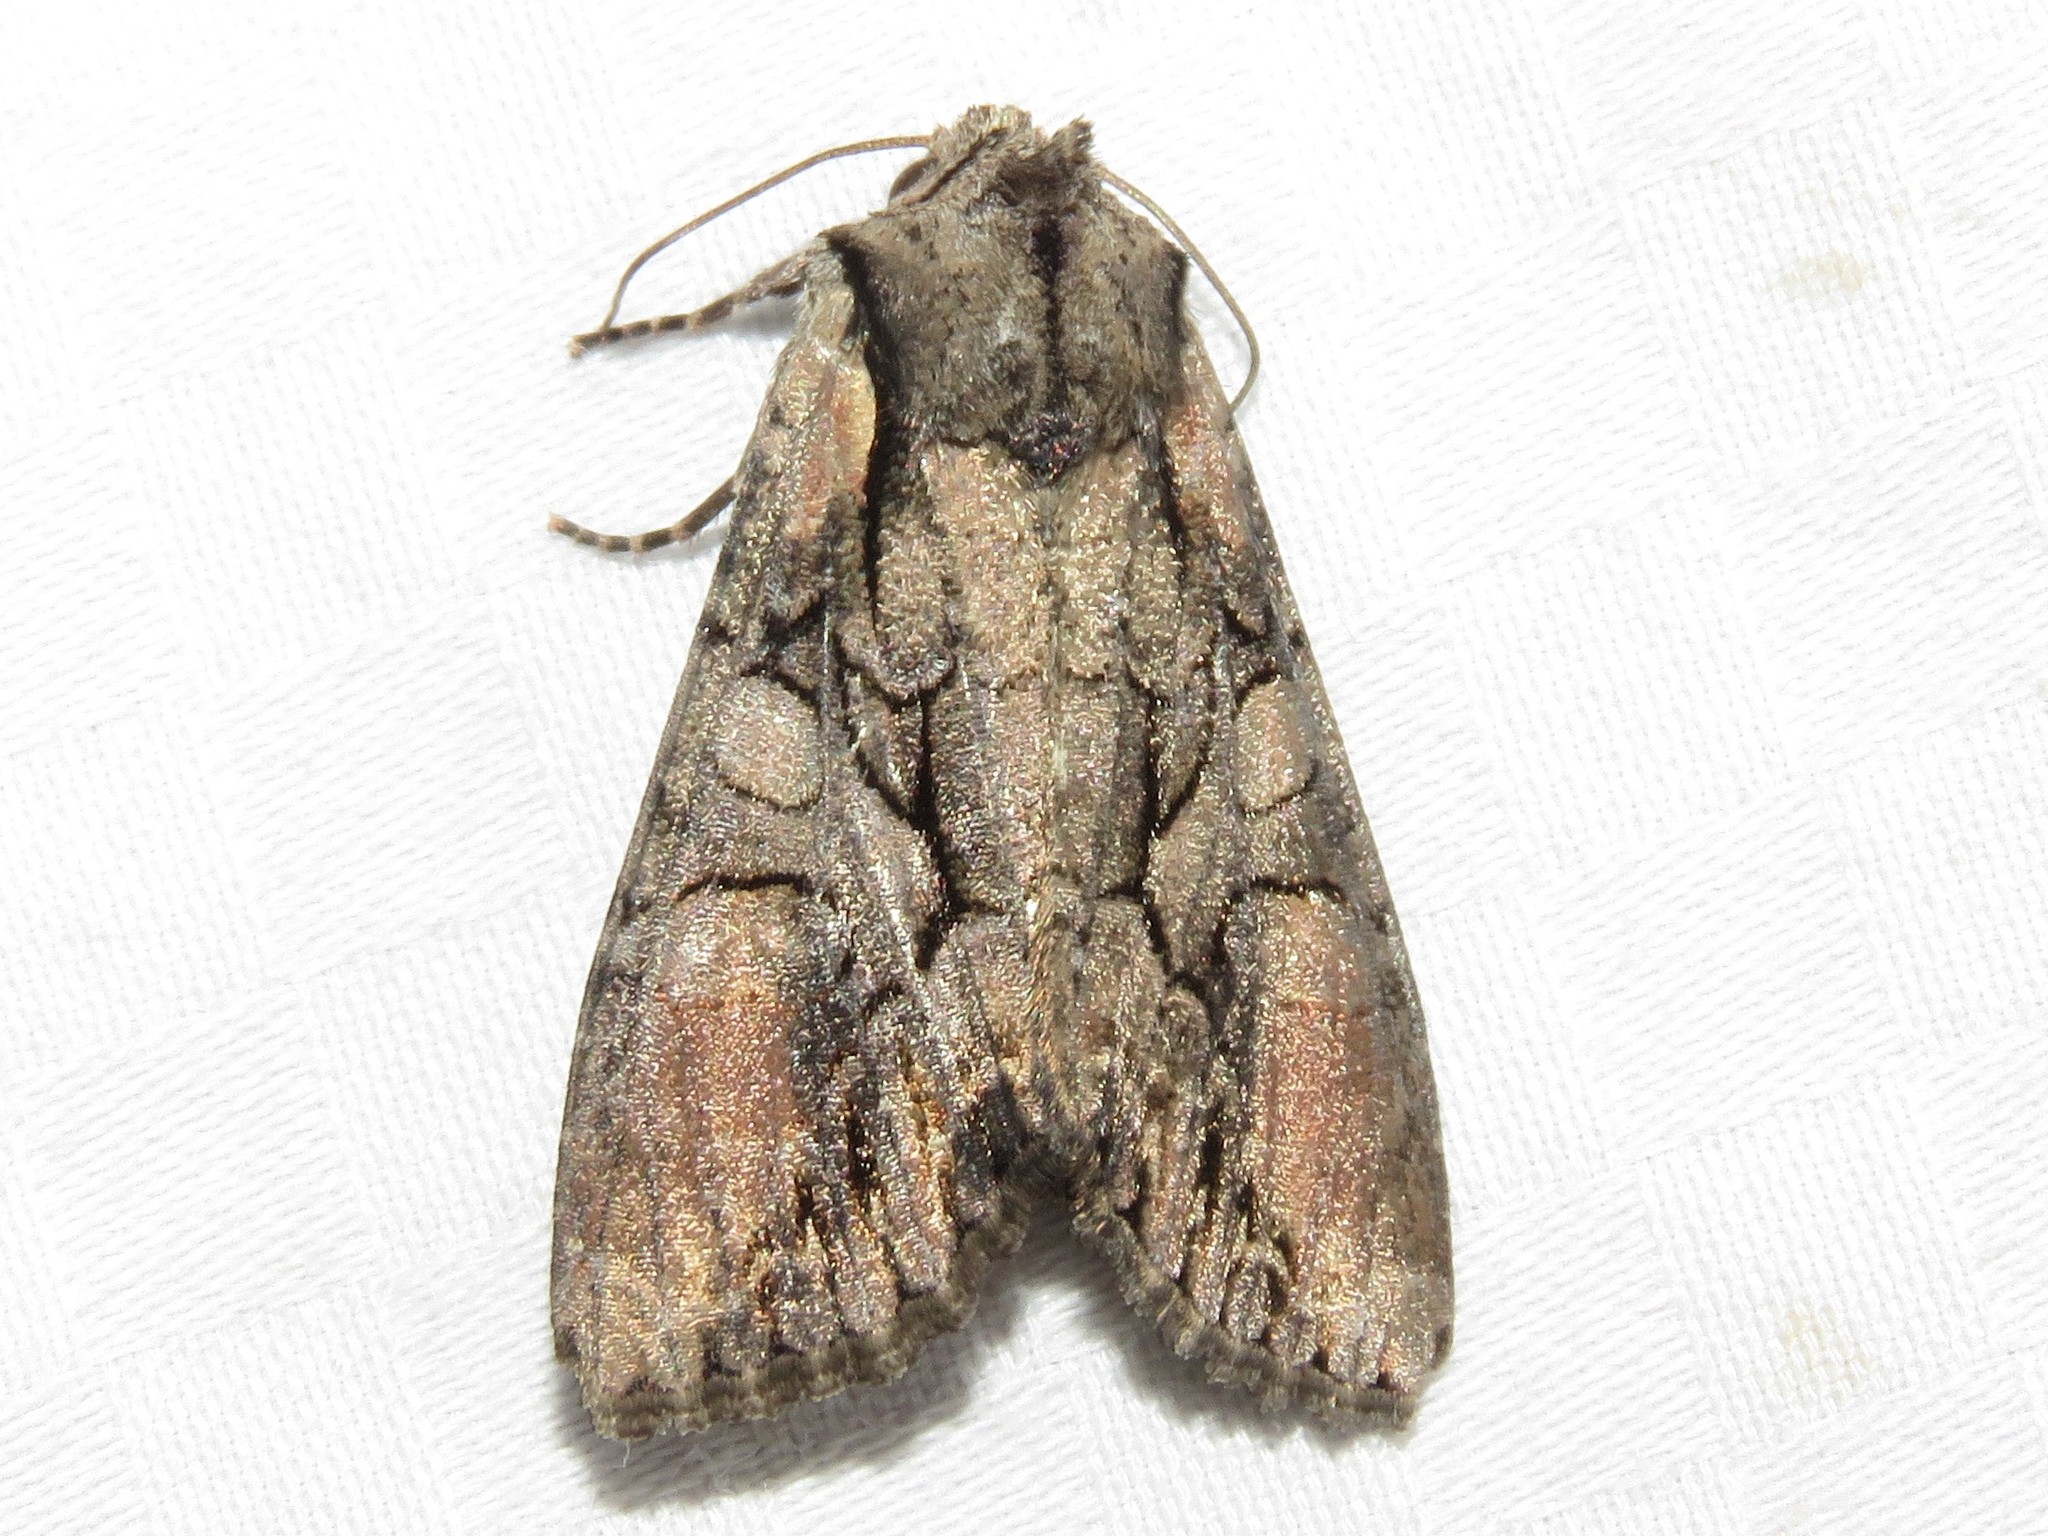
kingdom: Animalia
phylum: Arthropoda
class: Insecta
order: Lepidoptera
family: Noctuidae
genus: Lacanobia
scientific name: Lacanobia subjuncta
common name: Speckled cutworm moth
